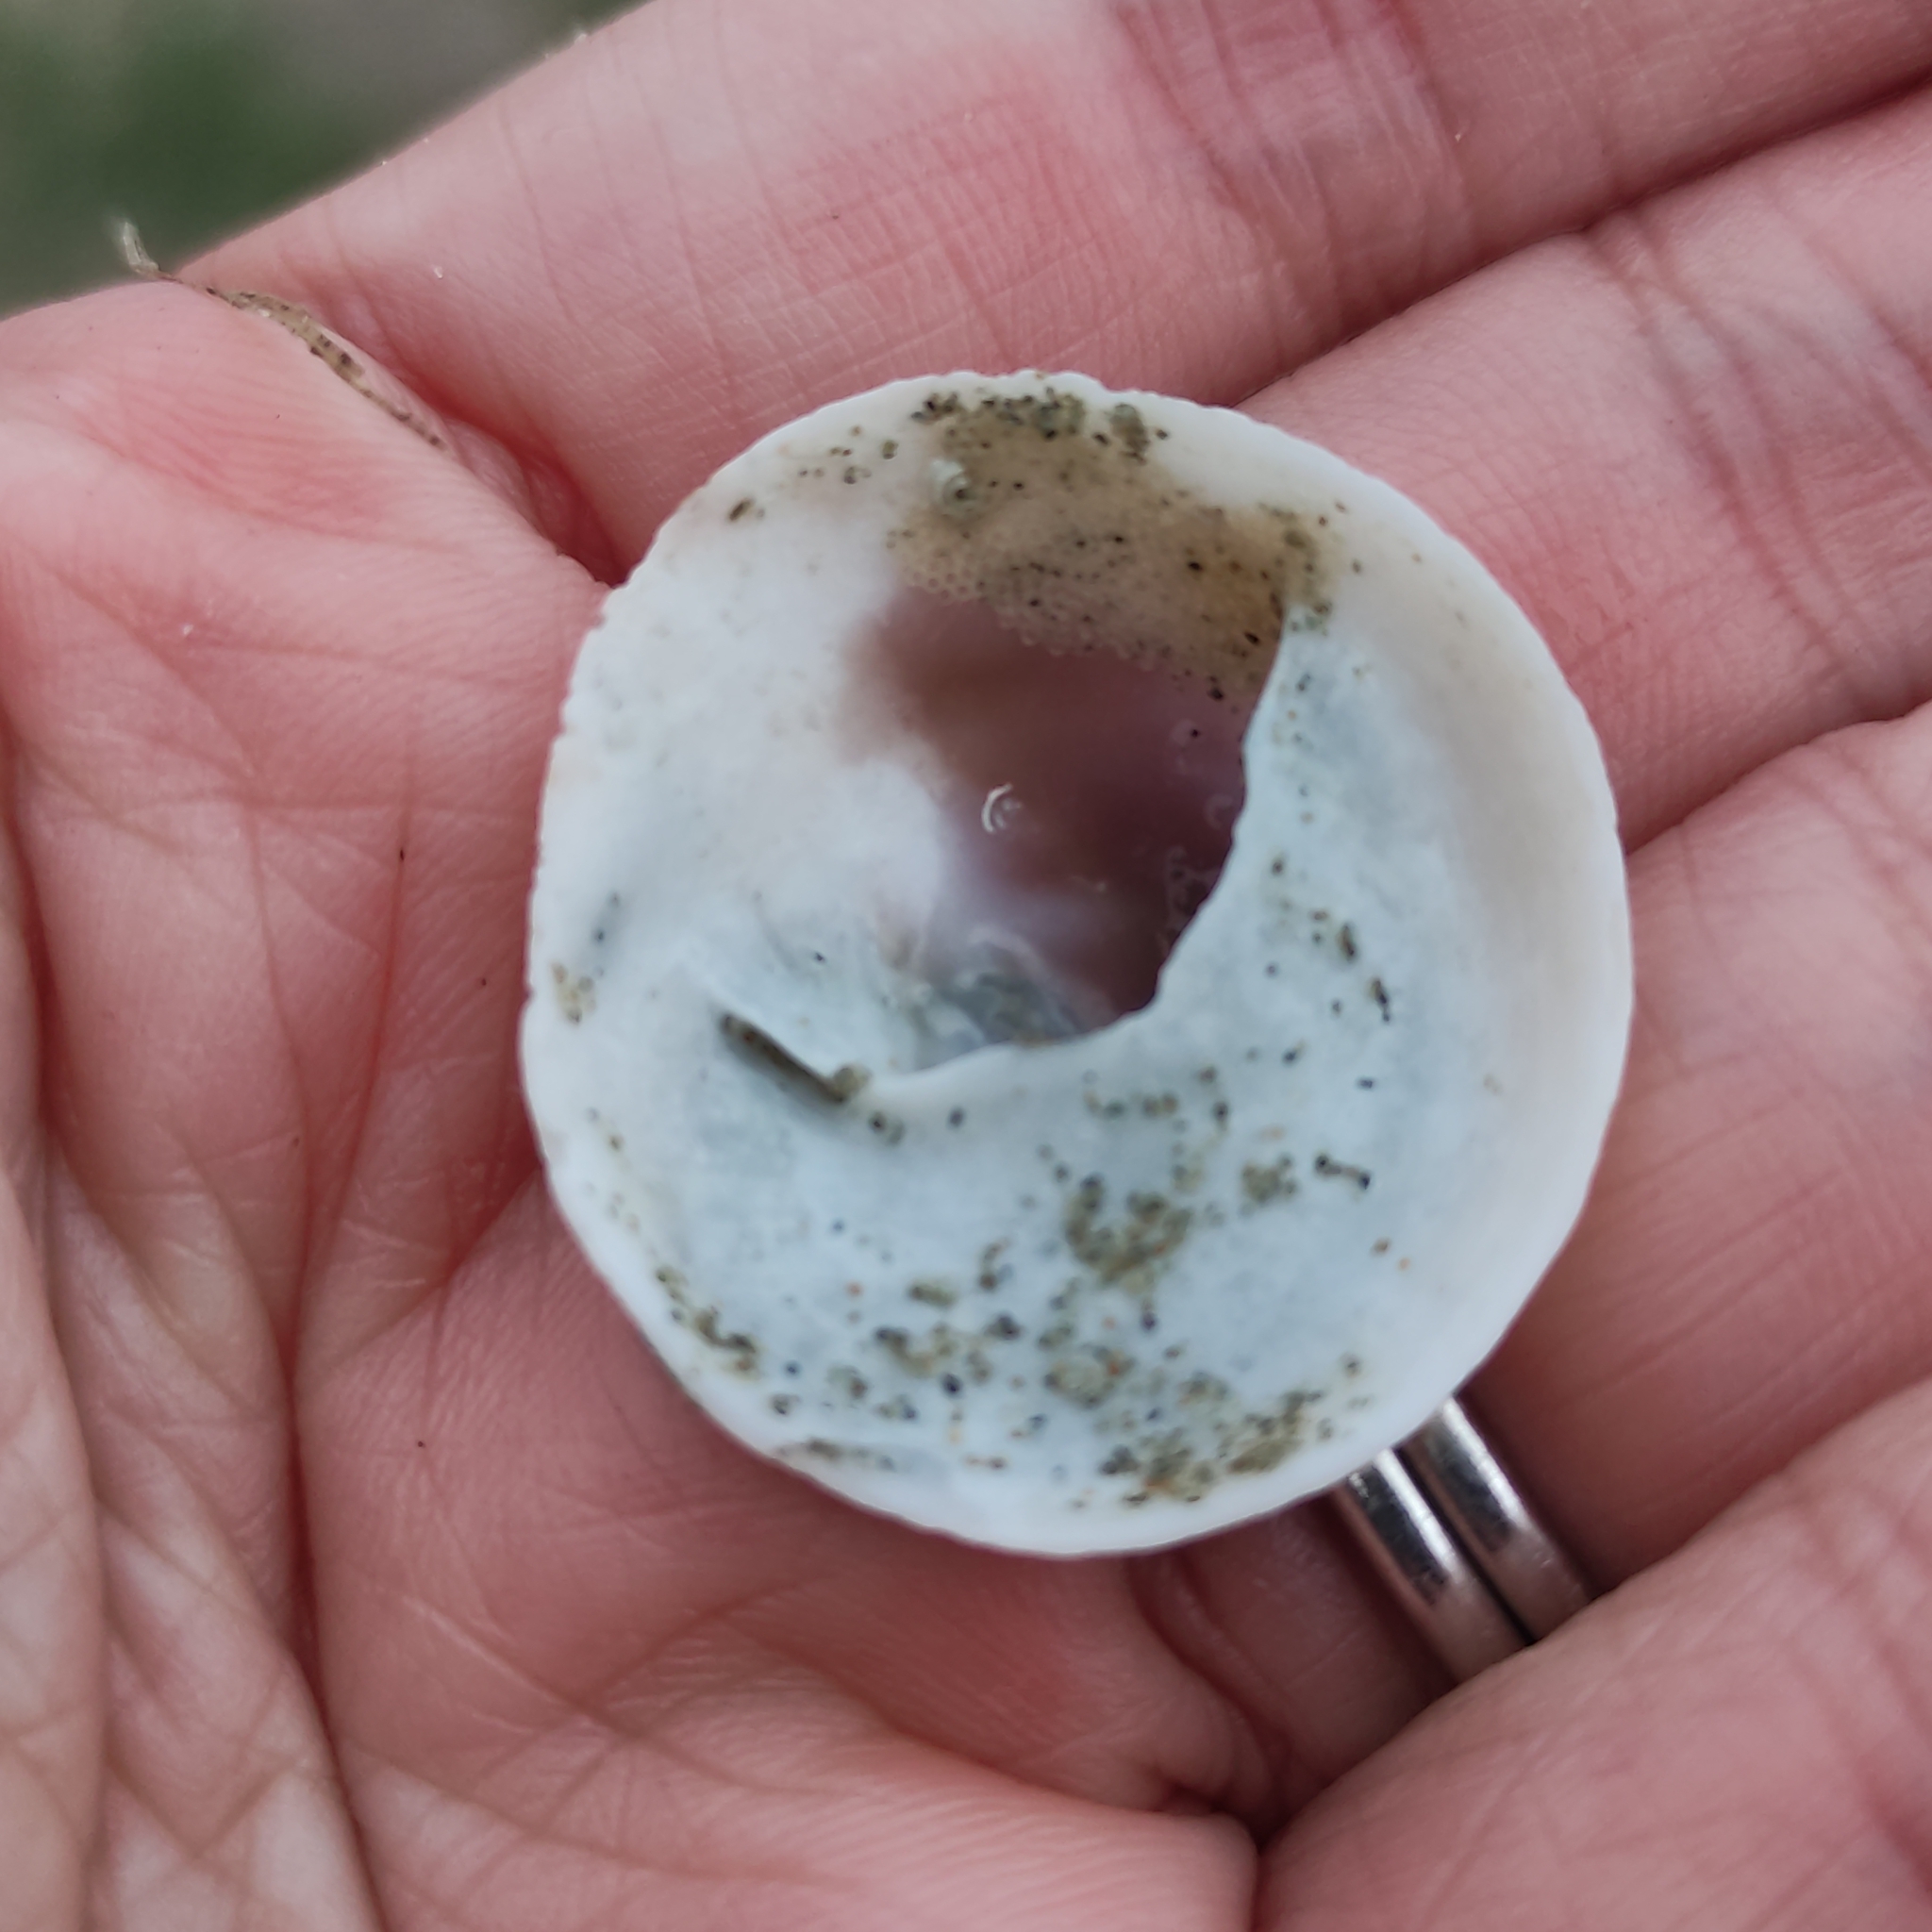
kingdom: Animalia
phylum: Mollusca
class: Gastropoda
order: Littorinimorpha
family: Calyptraeidae
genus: Sigapatella
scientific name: Sigapatella novaezelandiae
